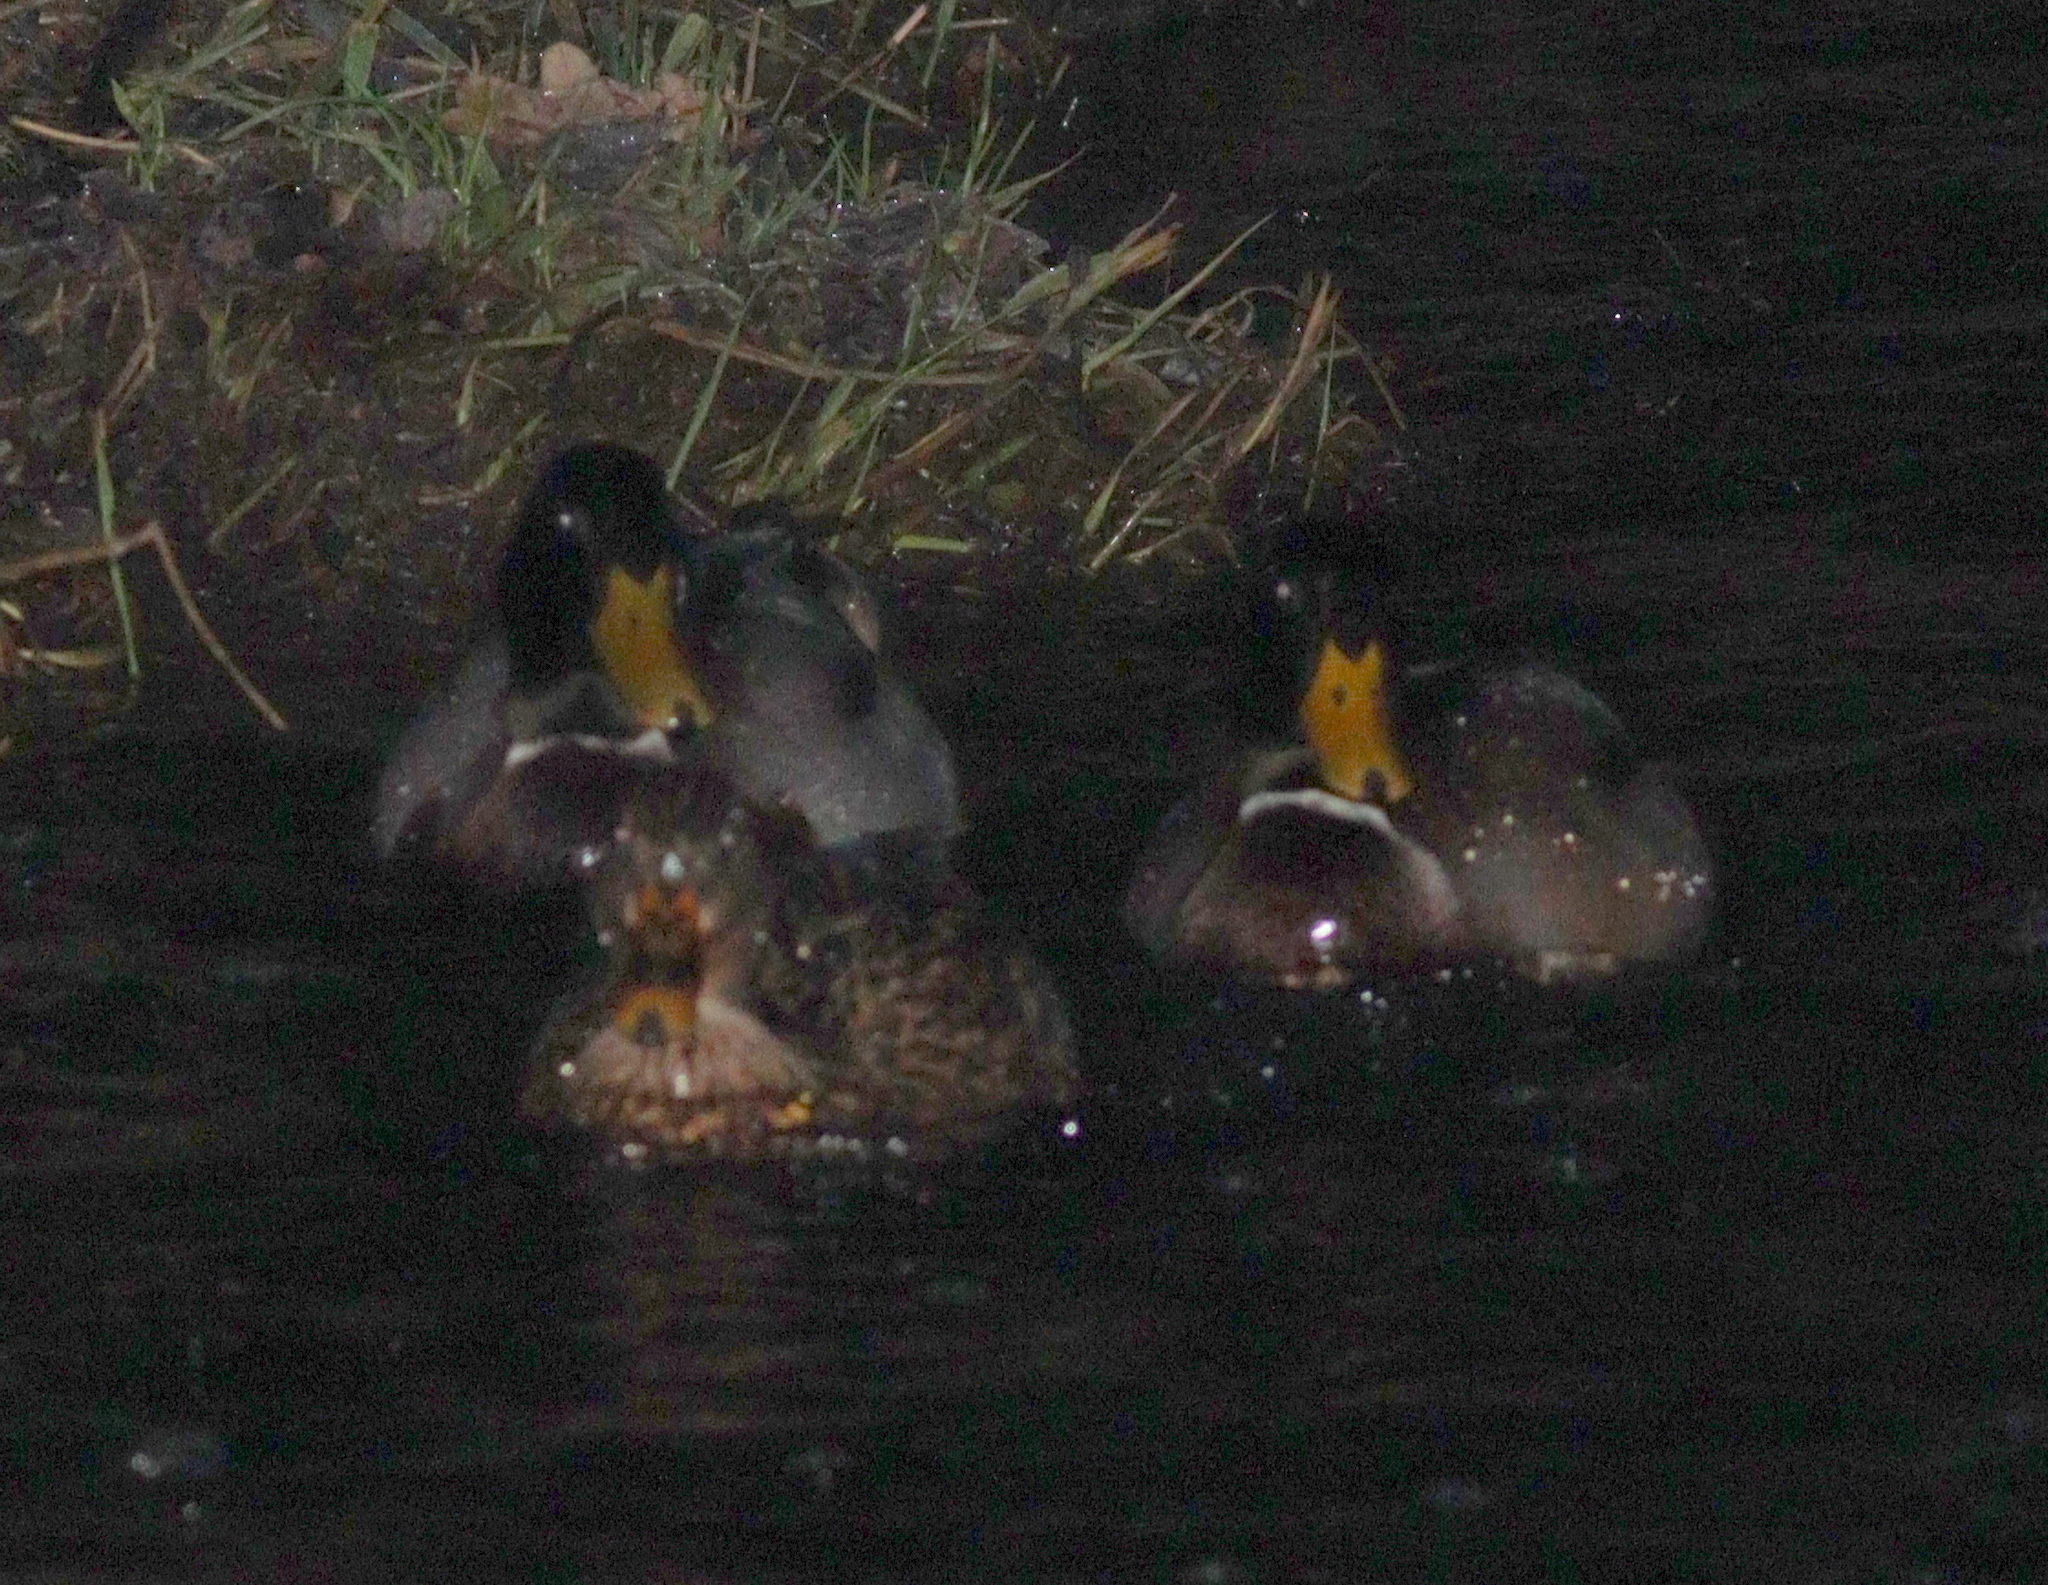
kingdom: Animalia
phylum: Chordata
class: Aves
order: Anseriformes
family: Anatidae
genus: Anas
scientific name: Anas platyrhynchos
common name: Mallard
